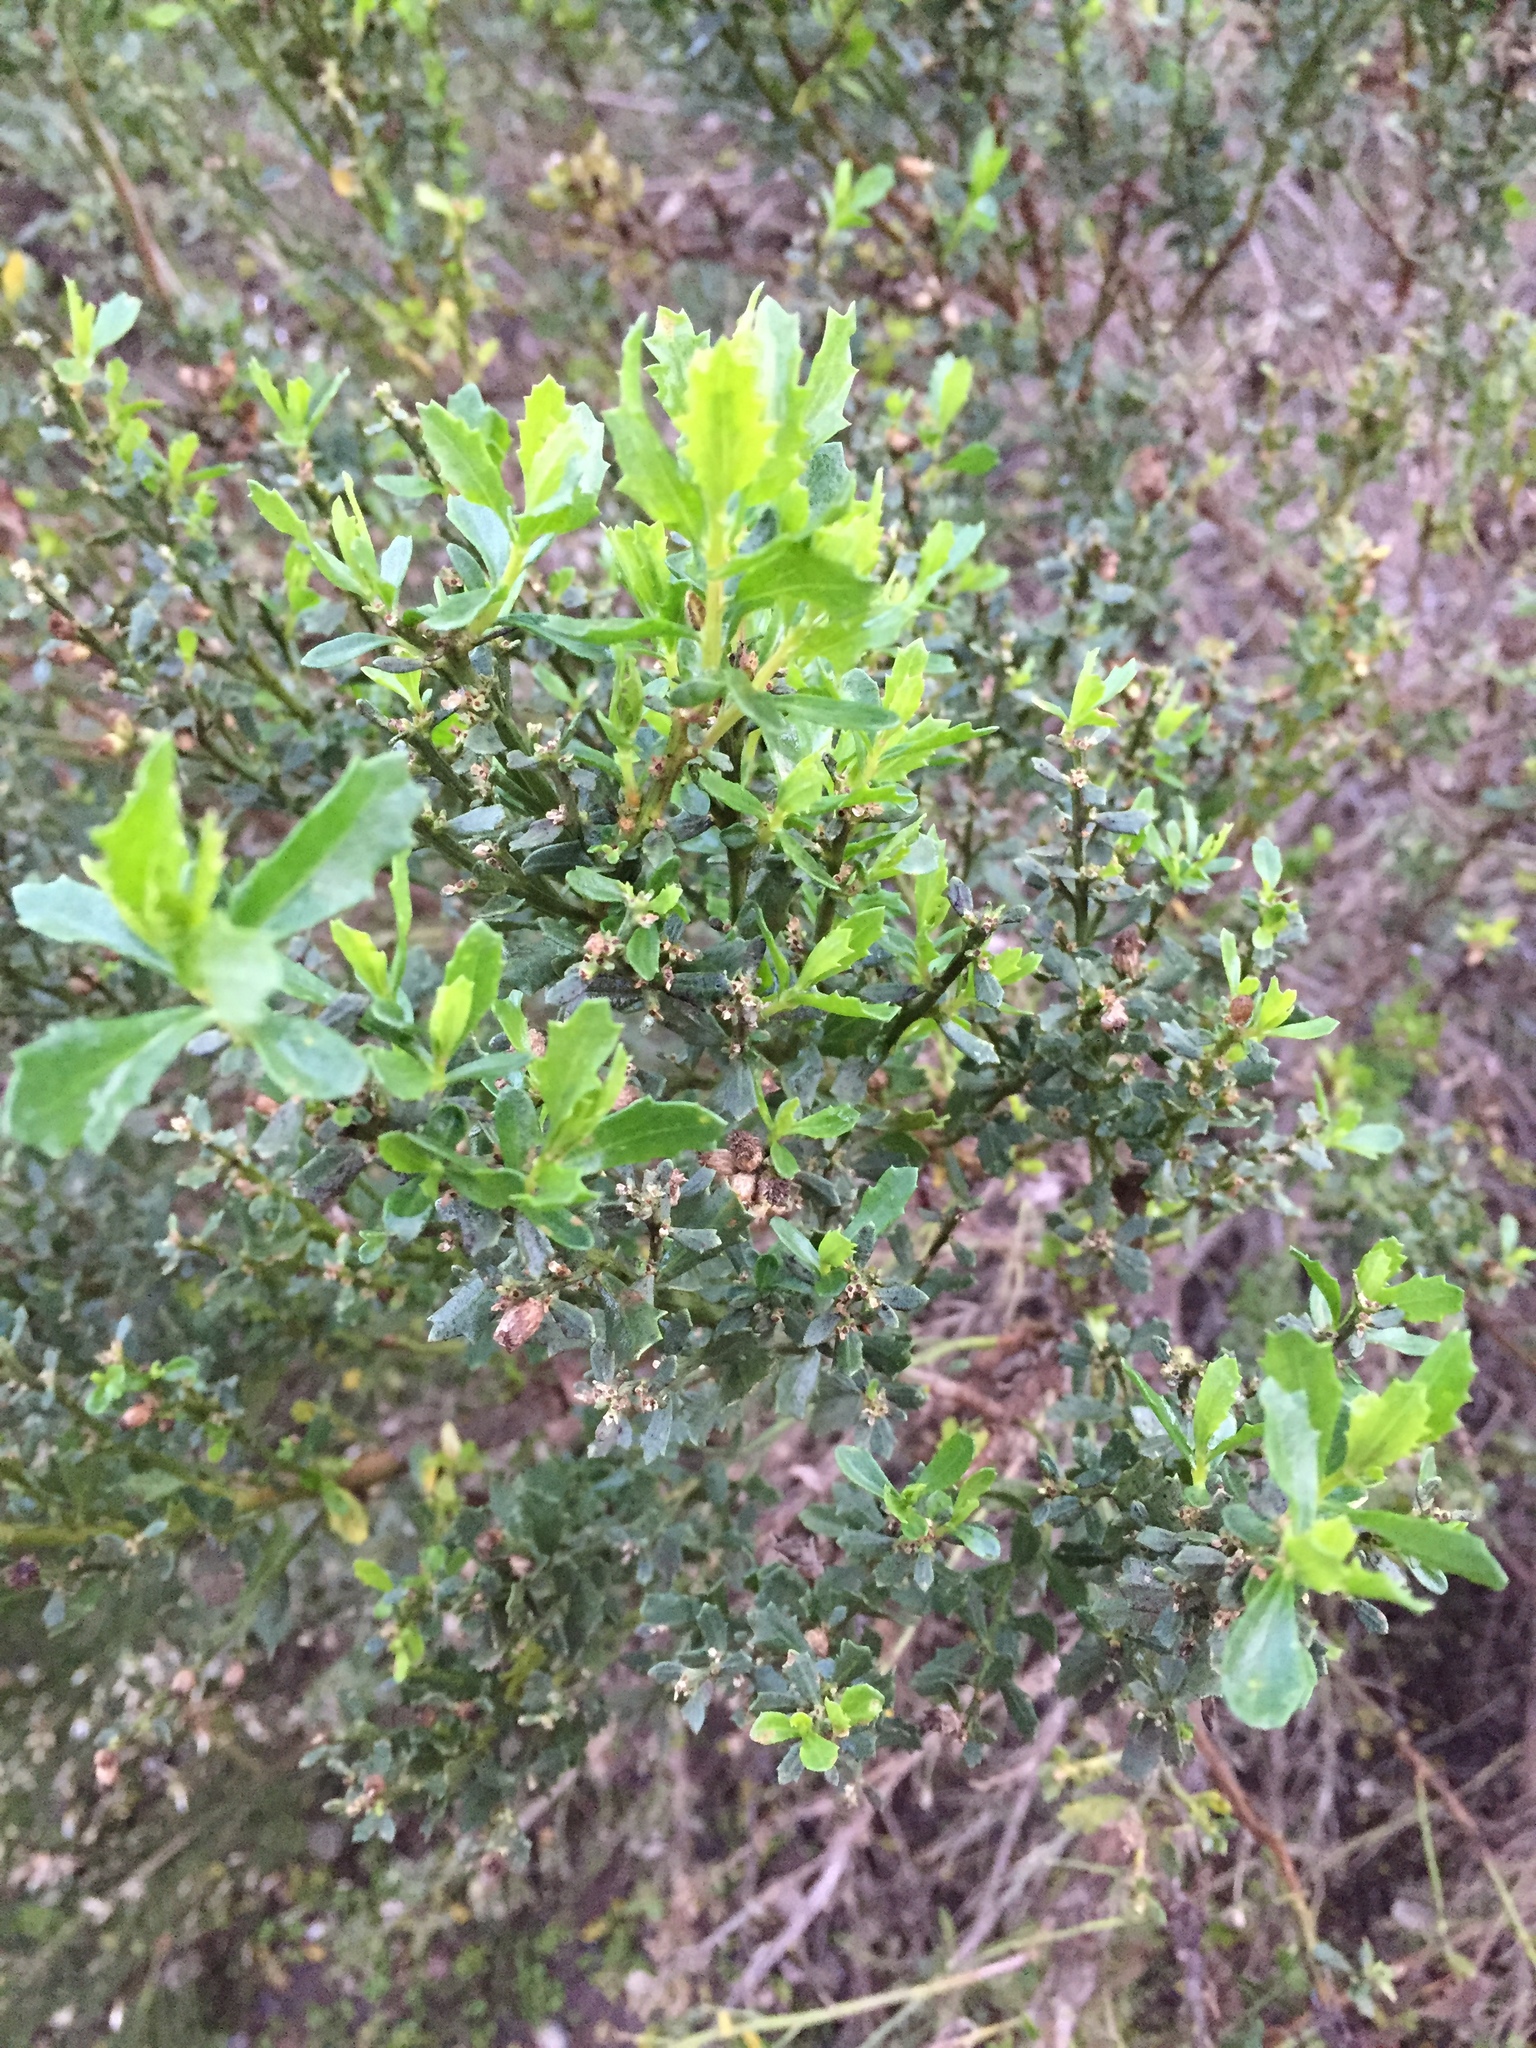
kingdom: Plantae
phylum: Tracheophyta
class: Magnoliopsida
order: Asterales
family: Asteraceae
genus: Baccharis
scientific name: Baccharis pilularis
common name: Coyotebrush
